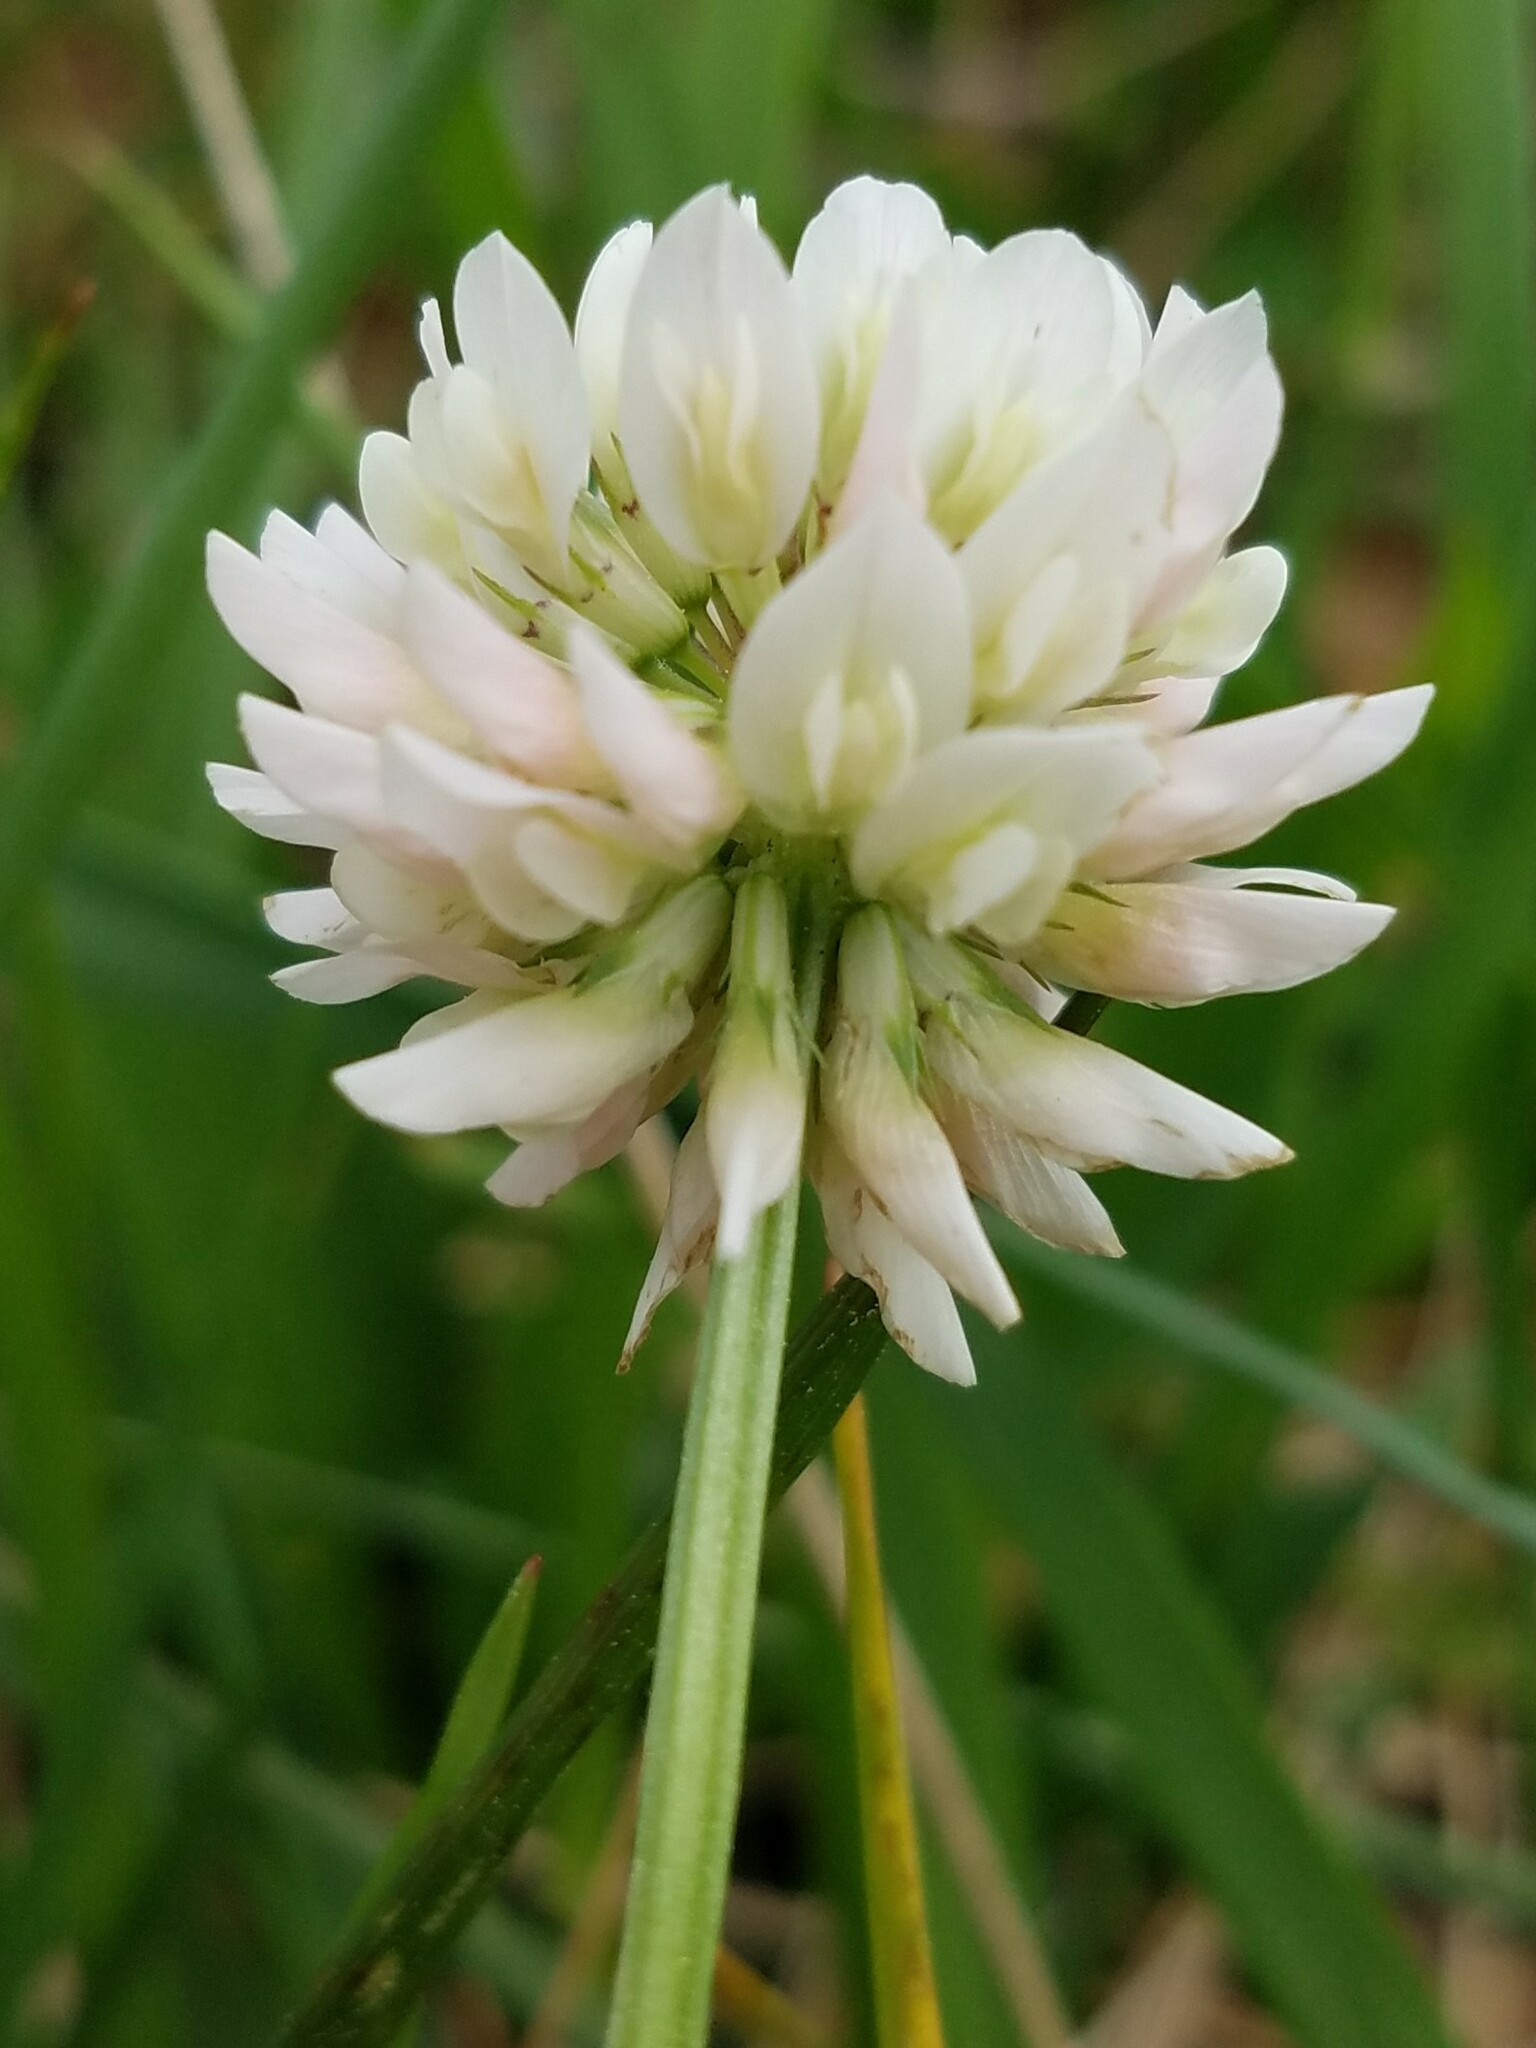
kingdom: Plantae
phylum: Tracheophyta
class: Magnoliopsida
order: Fabales
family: Fabaceae
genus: Trifolium
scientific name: Trifolium repens
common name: White clover
